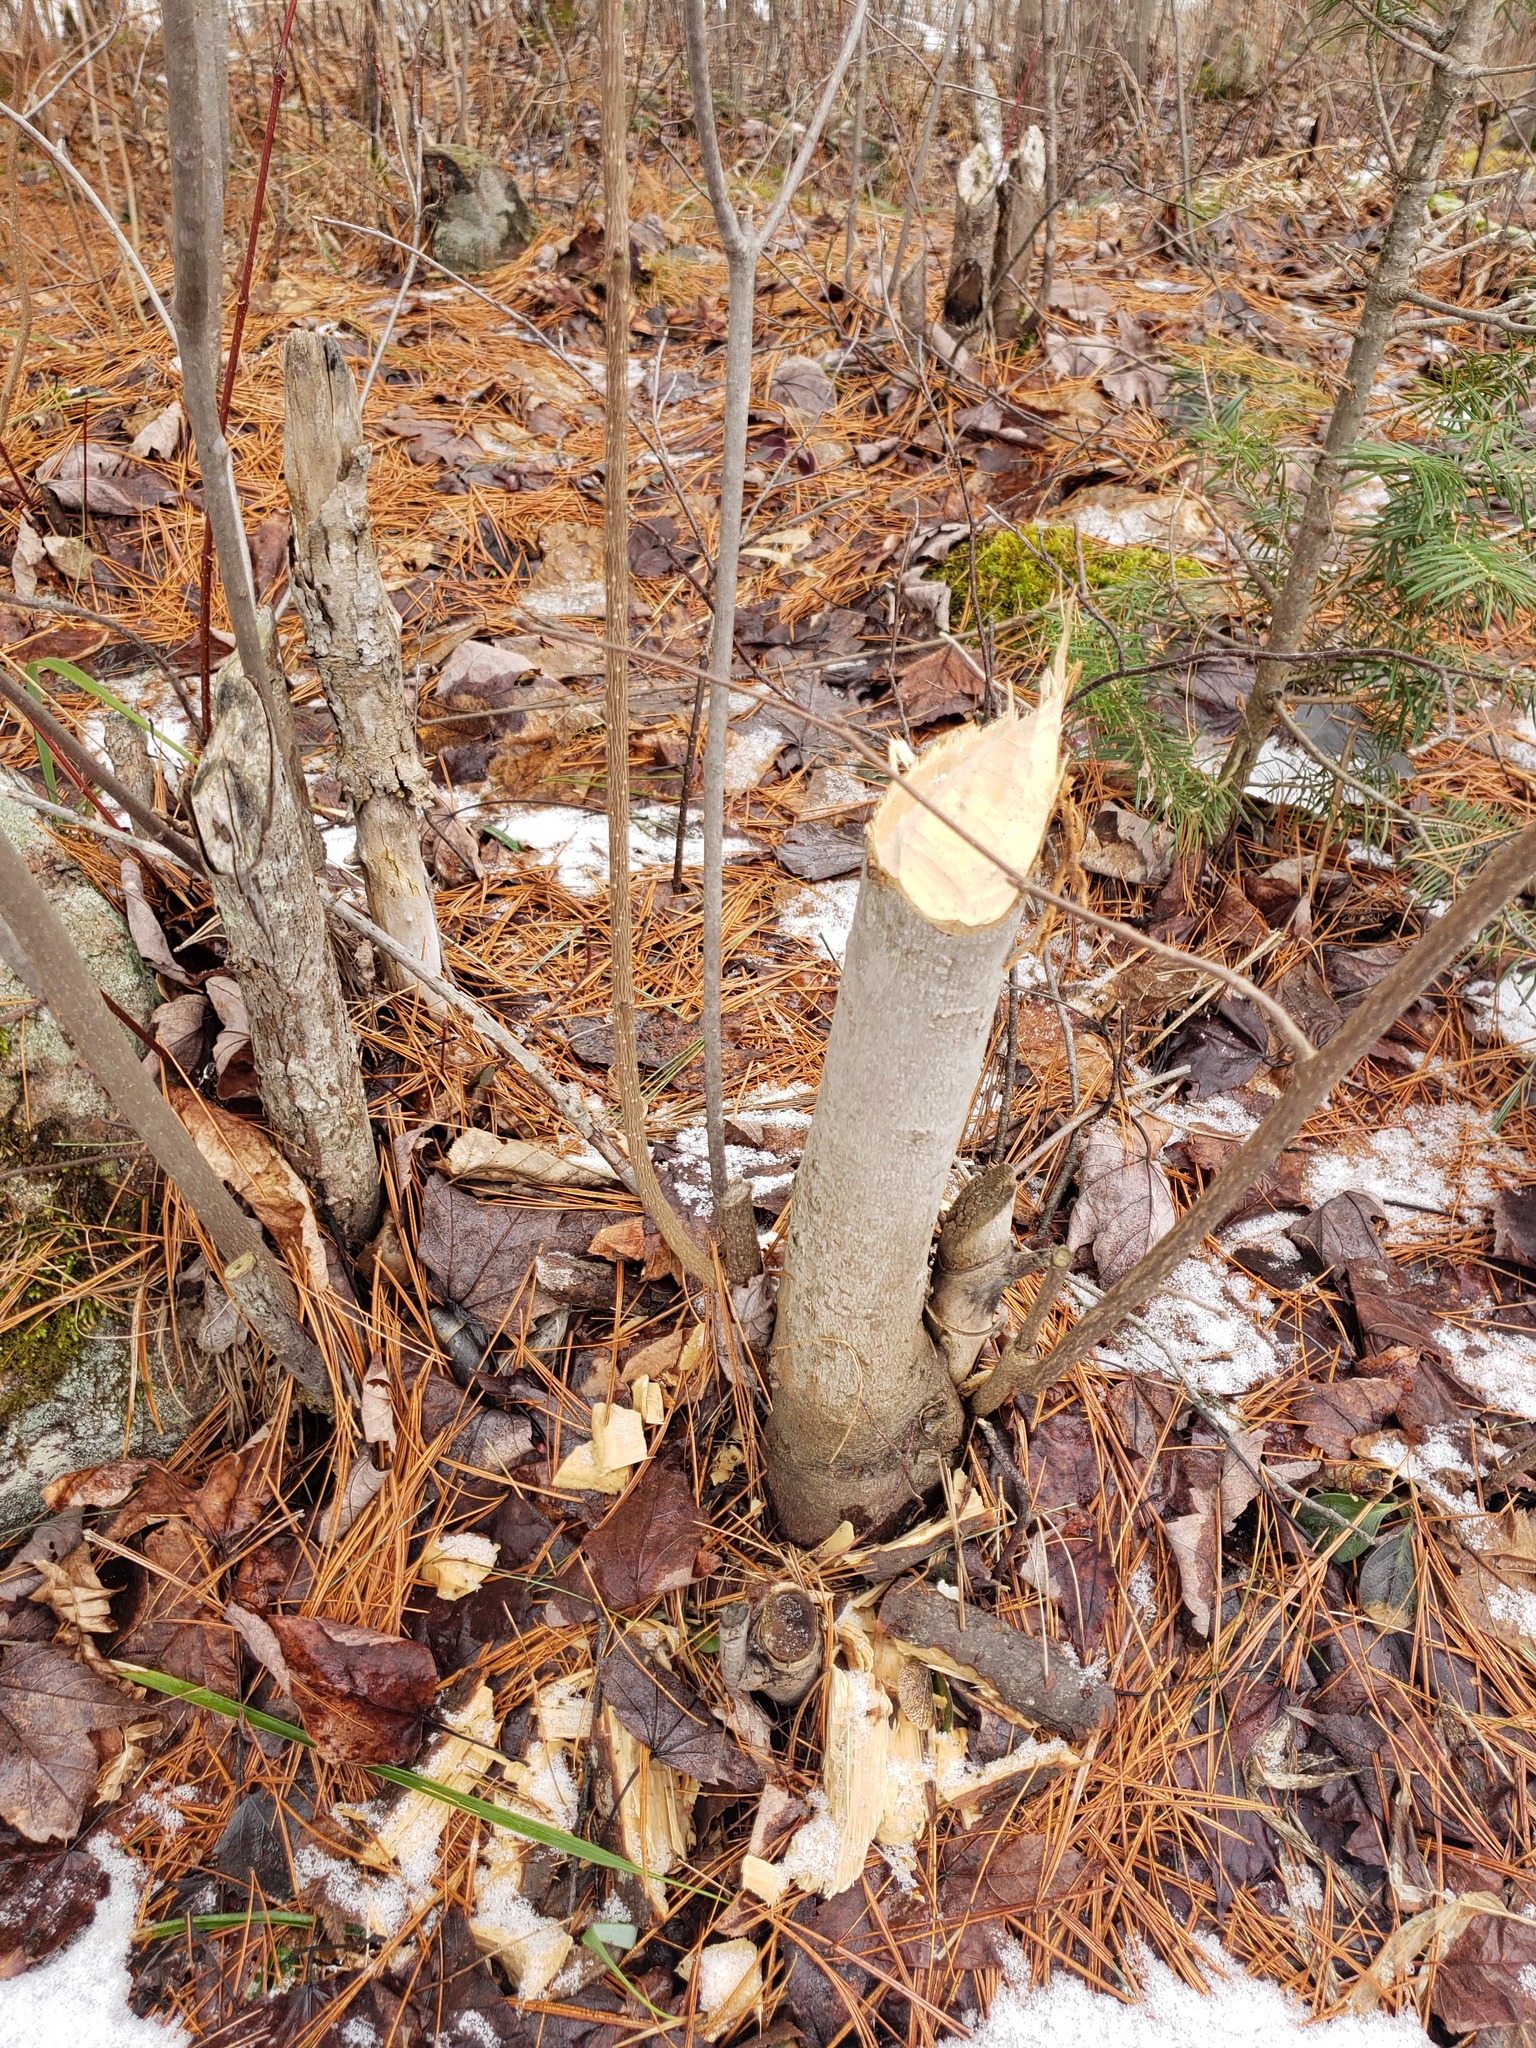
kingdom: Animalia
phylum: Chordata
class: Mammalia
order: Rodentia
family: Castoridae
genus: Castor
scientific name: Castor canadensis
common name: American beaver
